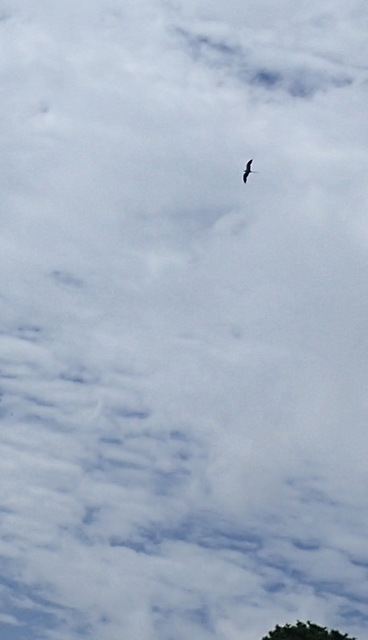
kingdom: Animalia
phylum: Chordata
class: Aves
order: Accipitriformes
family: Accipitridae
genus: Elanoides
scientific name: Elanoides forficatus
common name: Swallow-tailed kite
